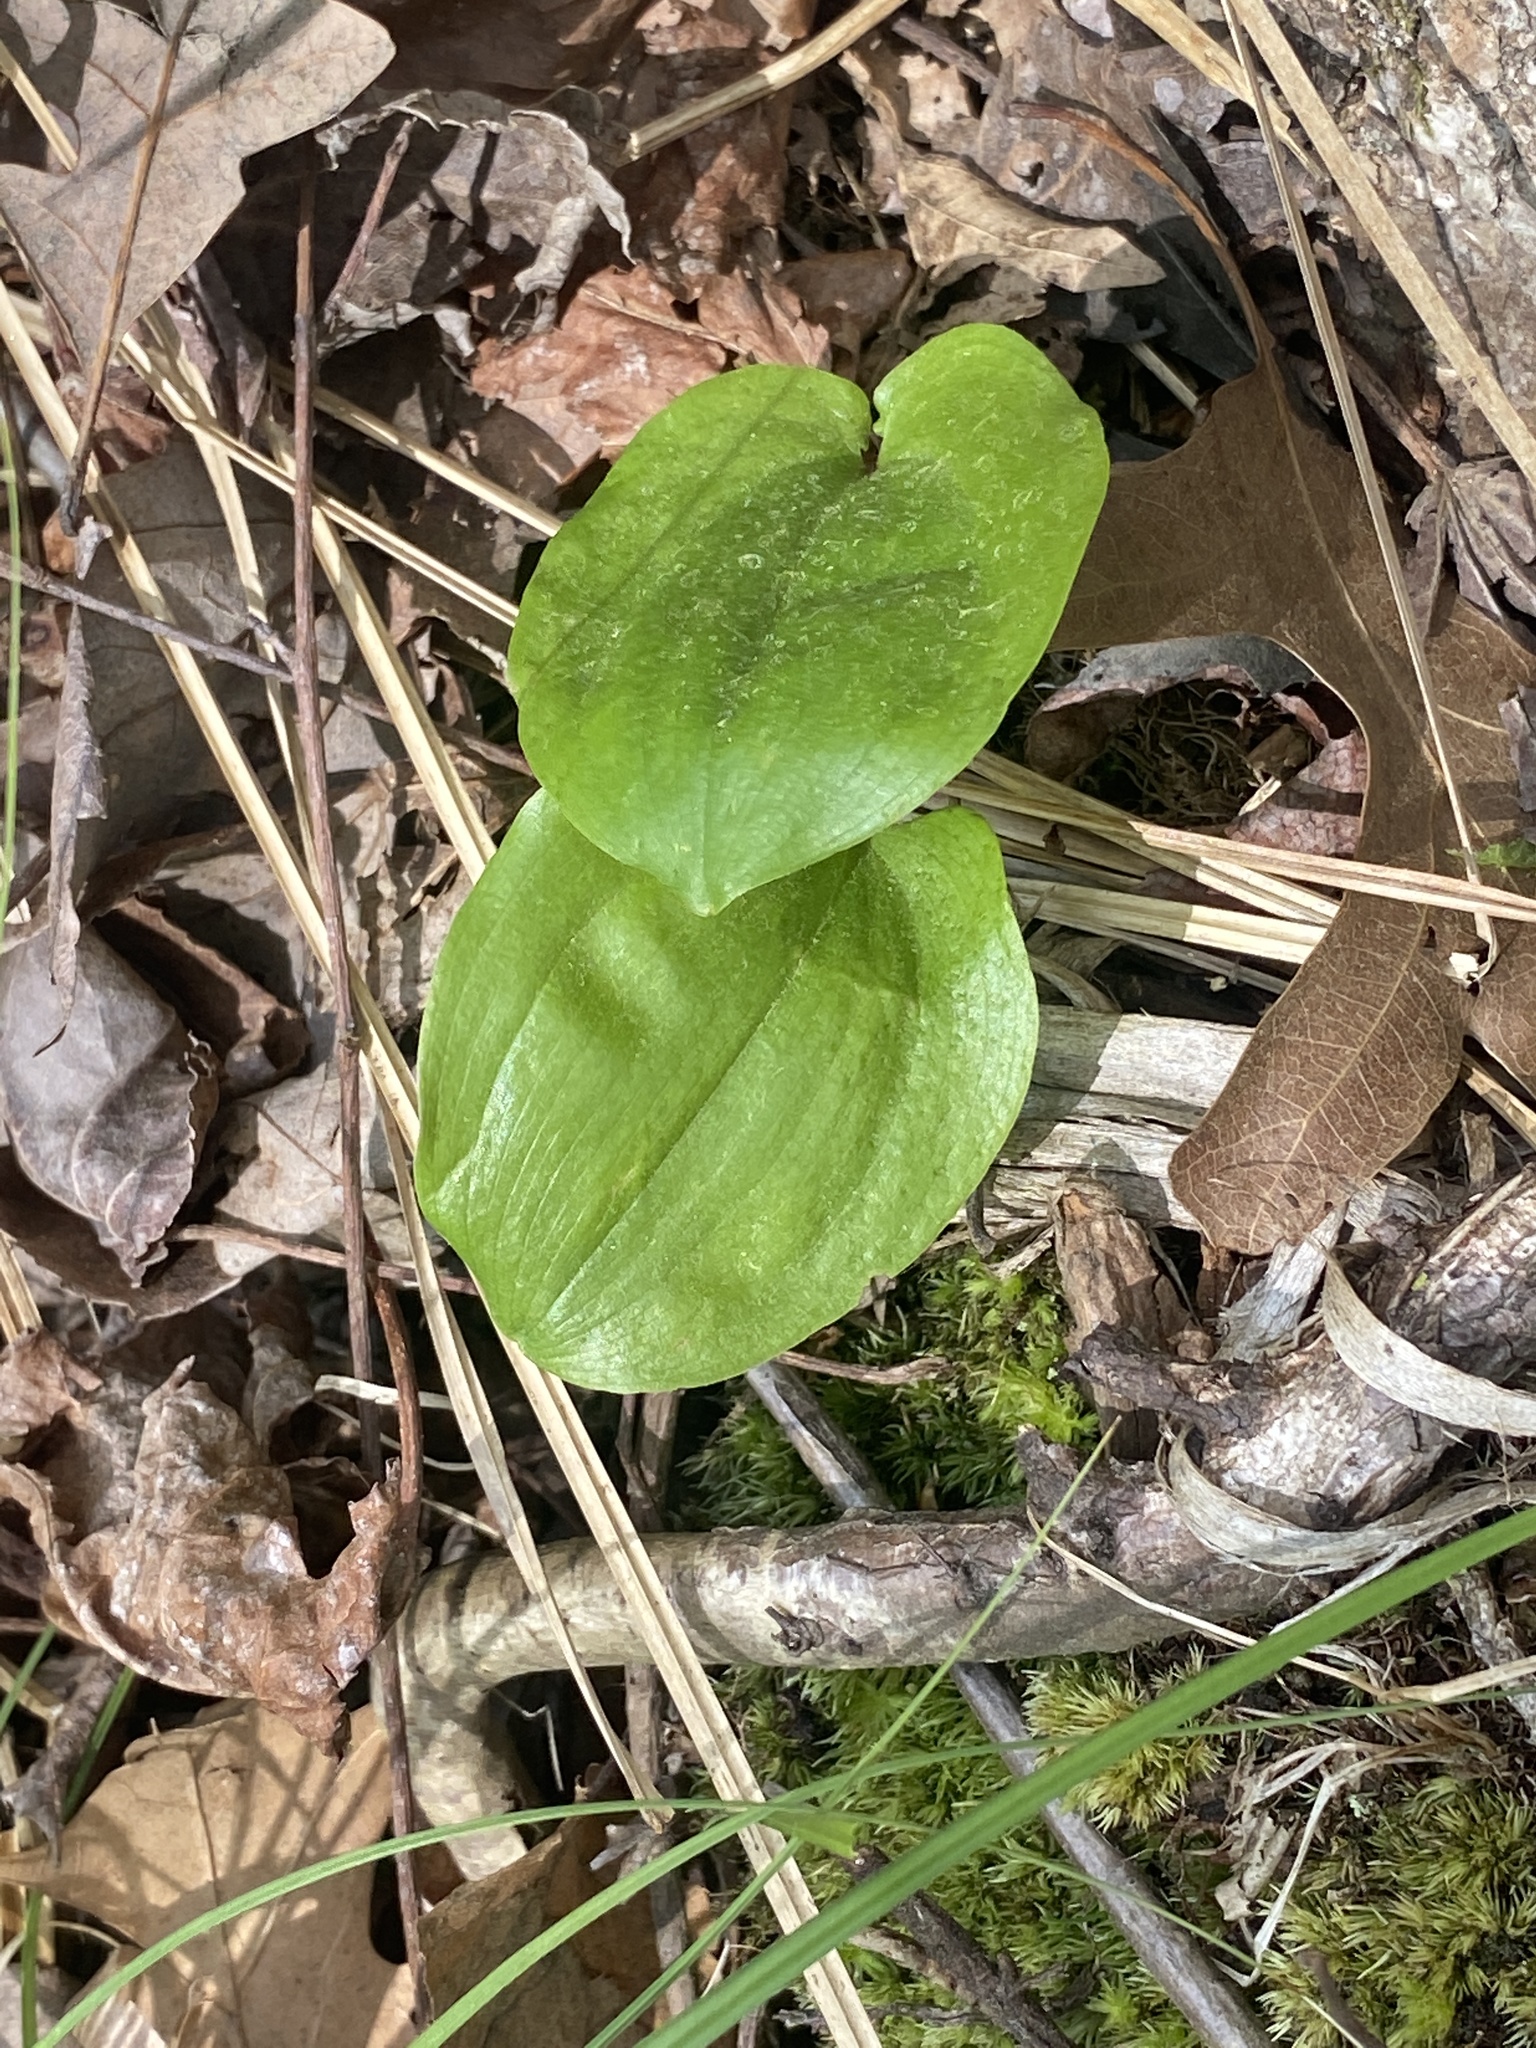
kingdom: Plantae
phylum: Tracheophyta
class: Liliopsida
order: Asparagales
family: Asparagaceae
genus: Maianthemum
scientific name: Maianthemum canadense
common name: False lily-of-the-valley
